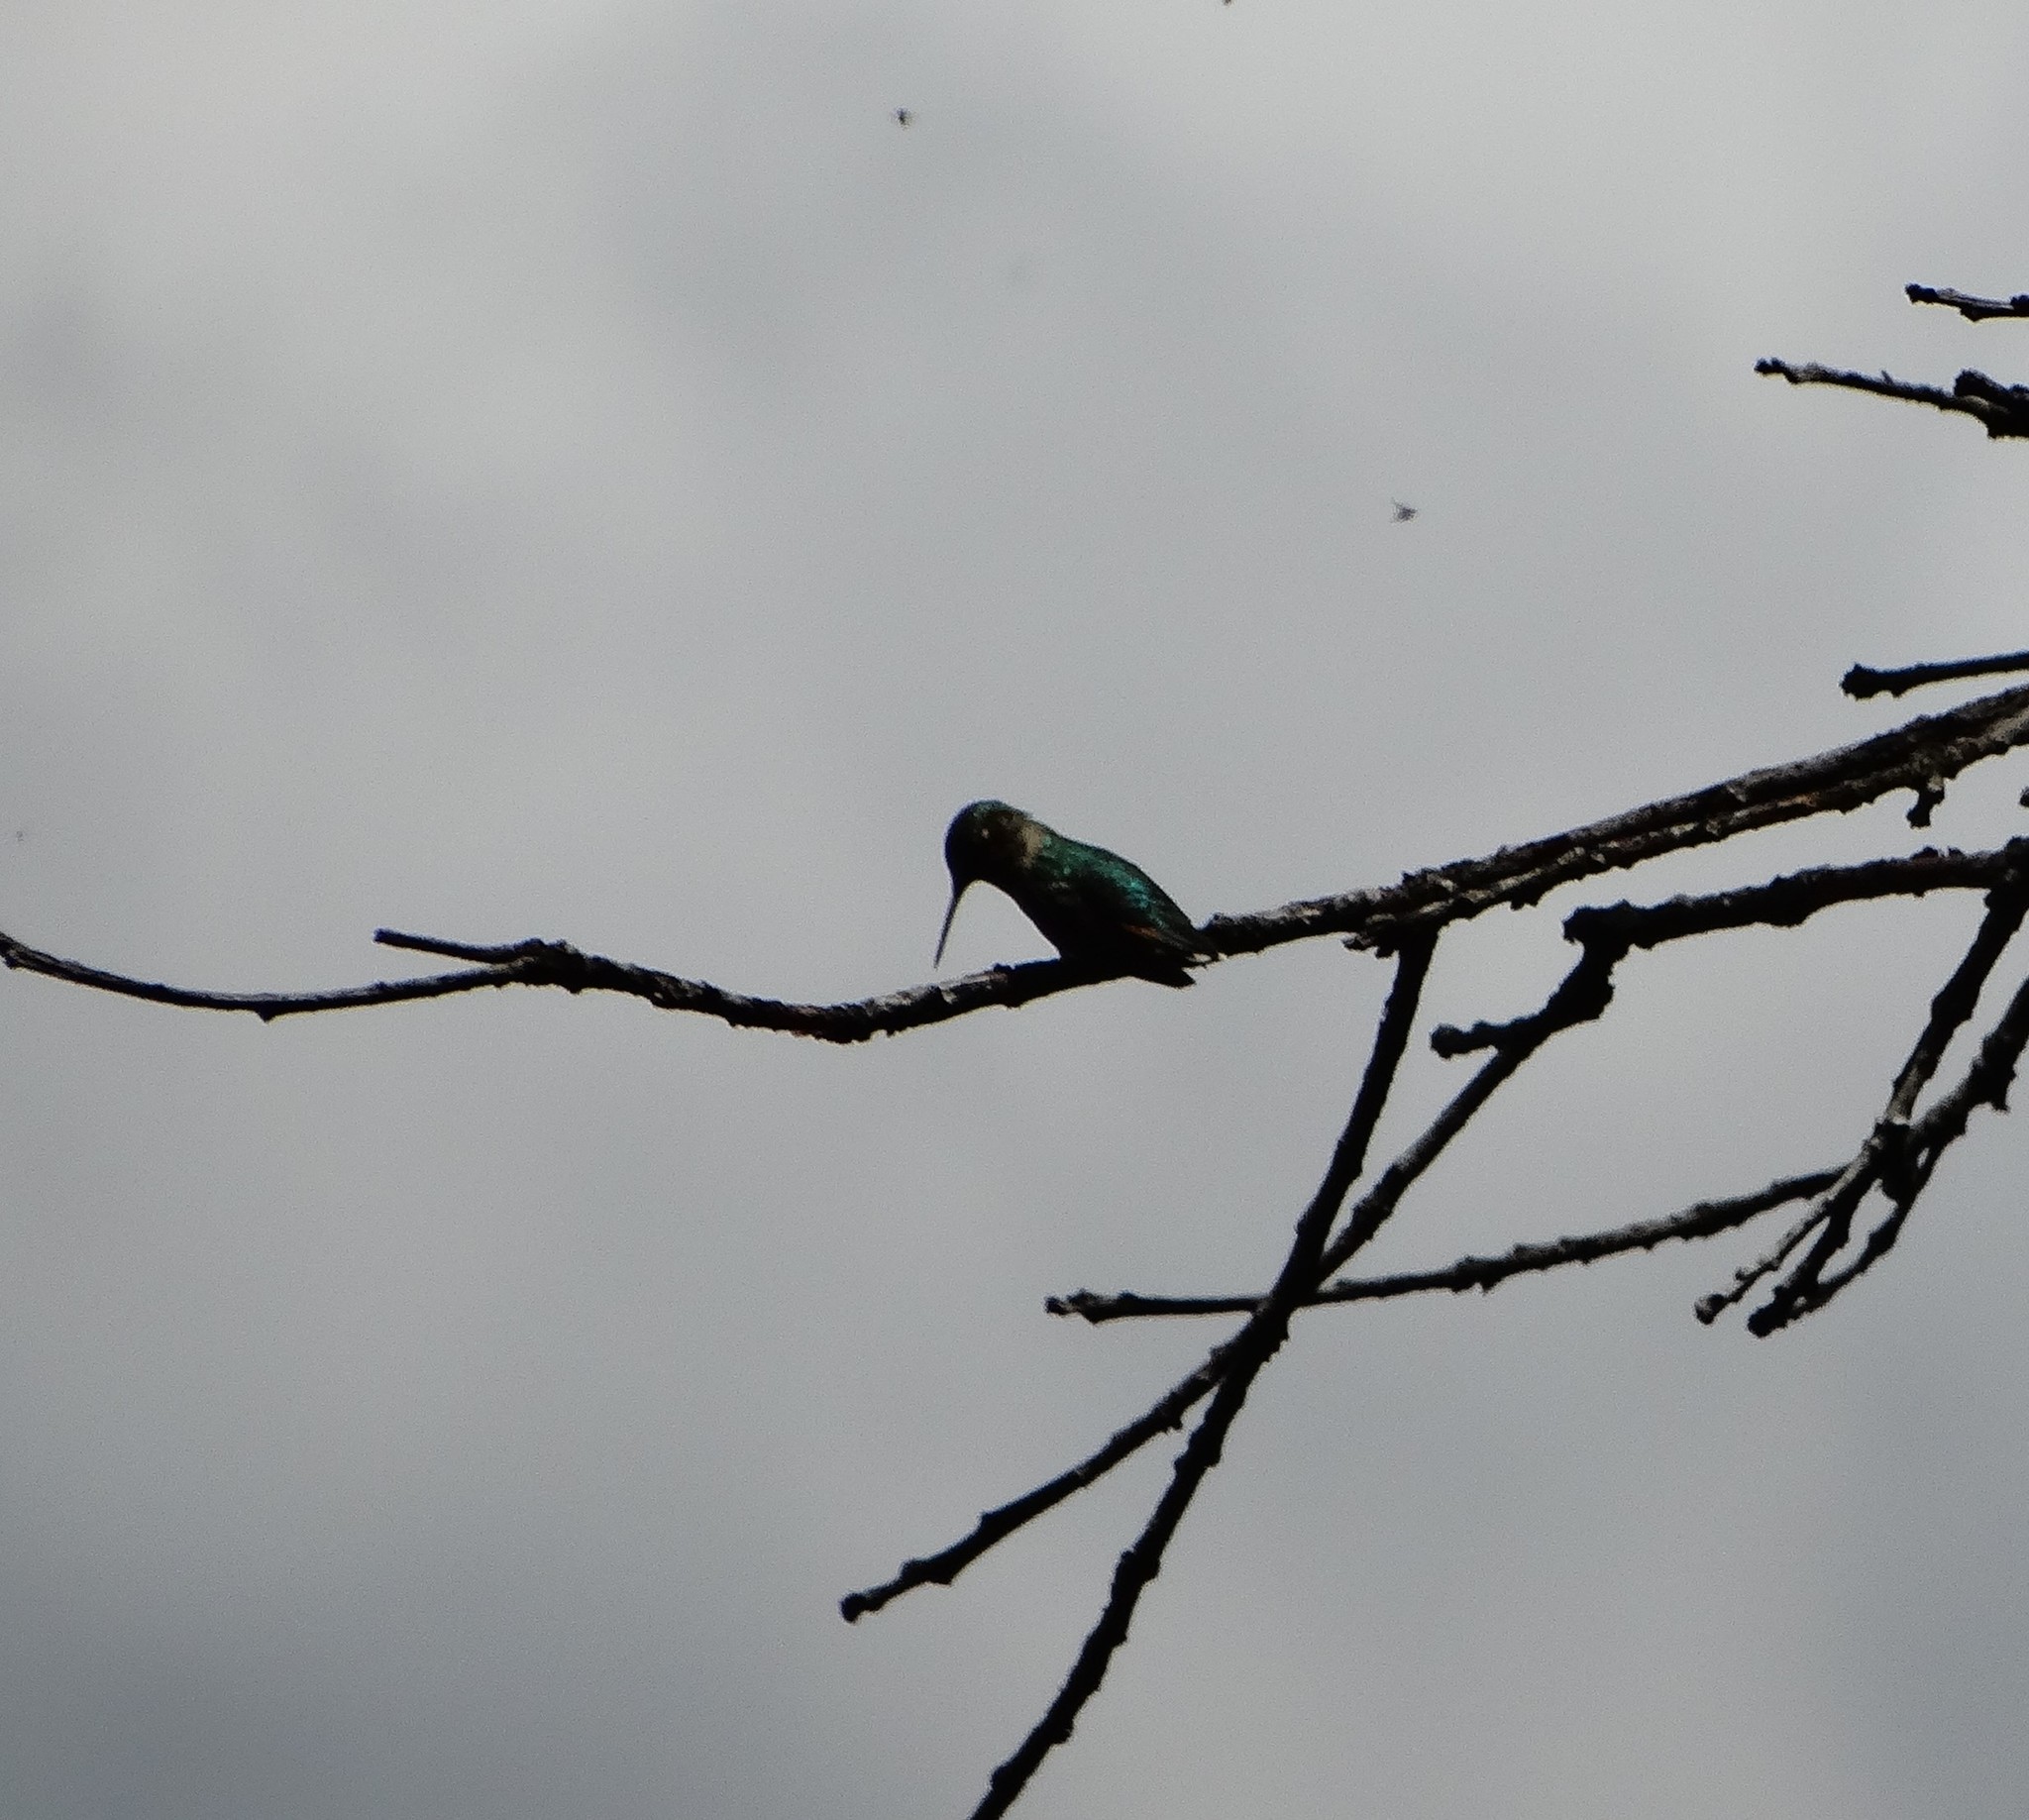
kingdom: Animalia
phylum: Chordata
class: Aves
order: Apodiformes
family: Trochilidae
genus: Archilochus
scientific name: Archilochus colubris
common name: Ruby-throated hummingbird
